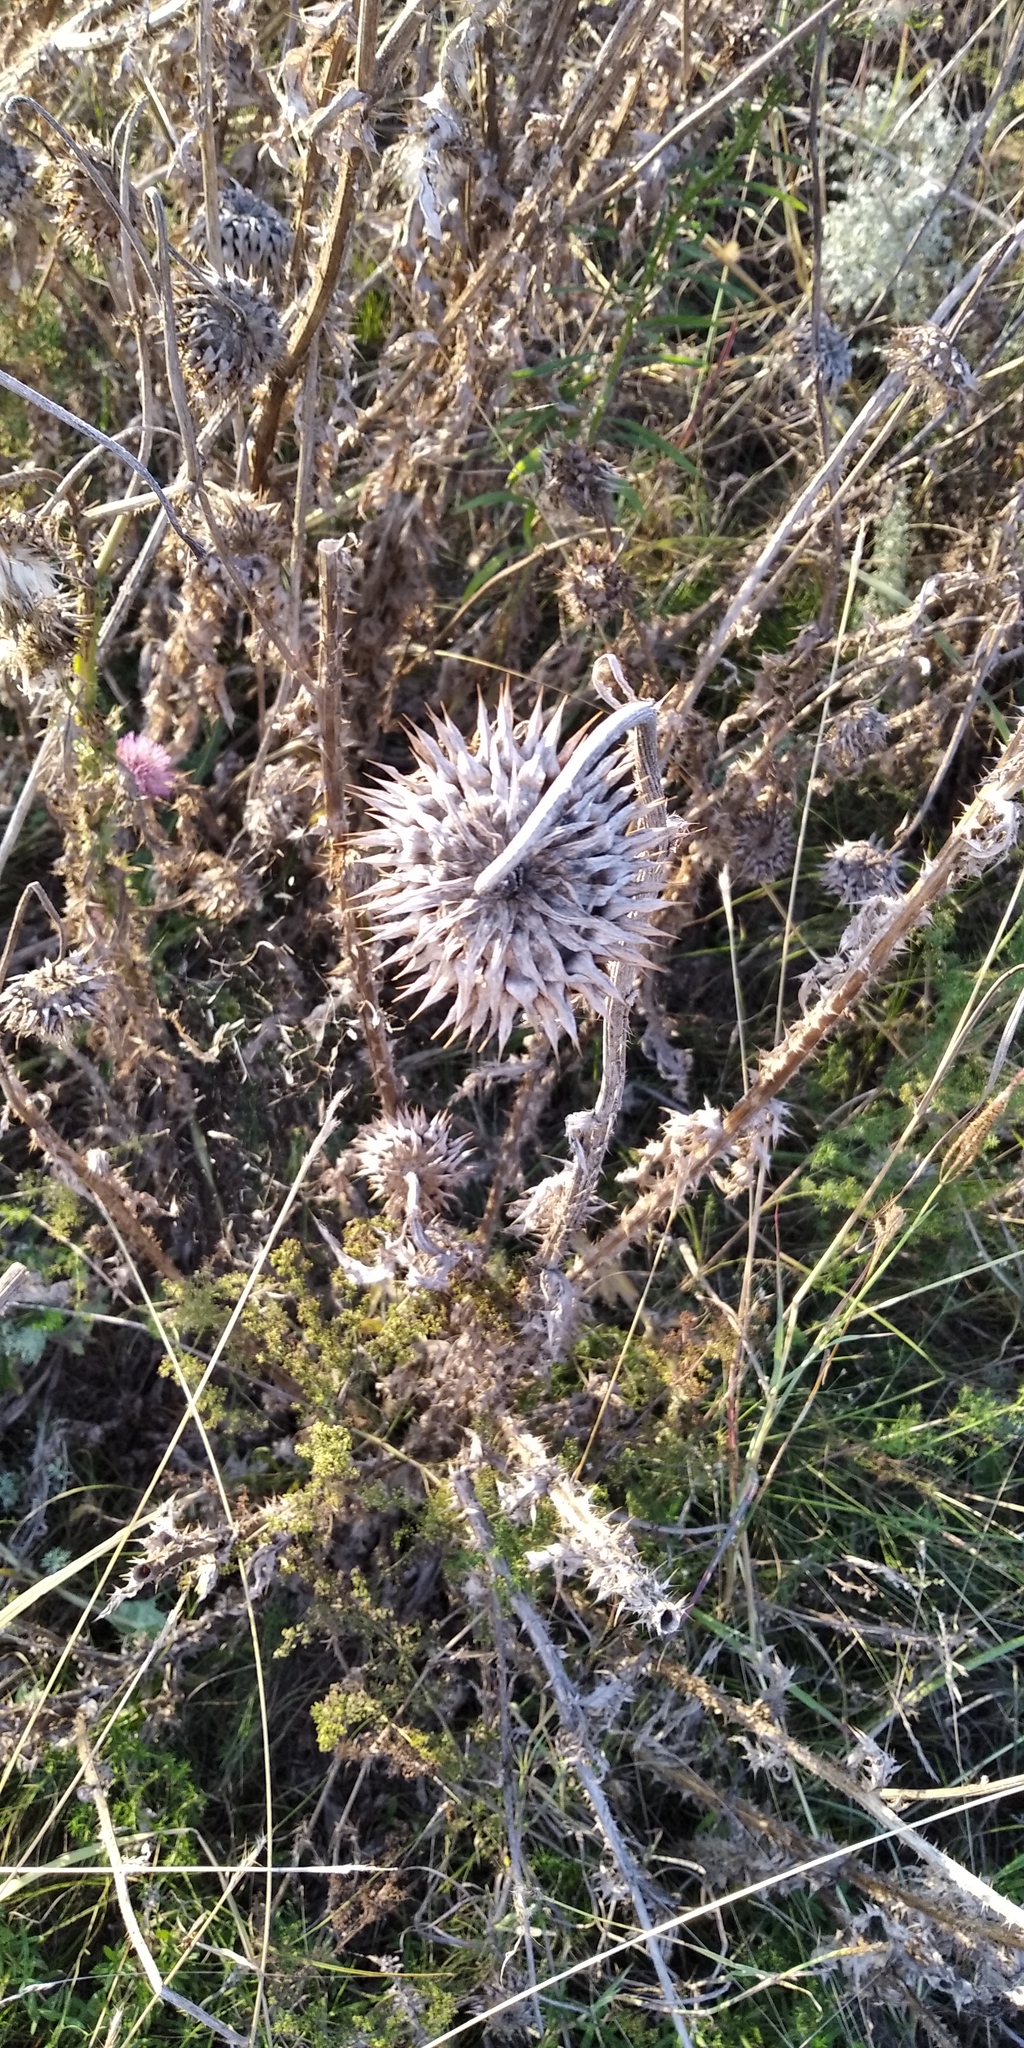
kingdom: Plantae
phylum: Tracheophyta
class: Magnoliopsida
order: Asterales
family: Asteraceae
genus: Echinops
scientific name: Echinops sphaerocephalus
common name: Glandular globe-thistle
